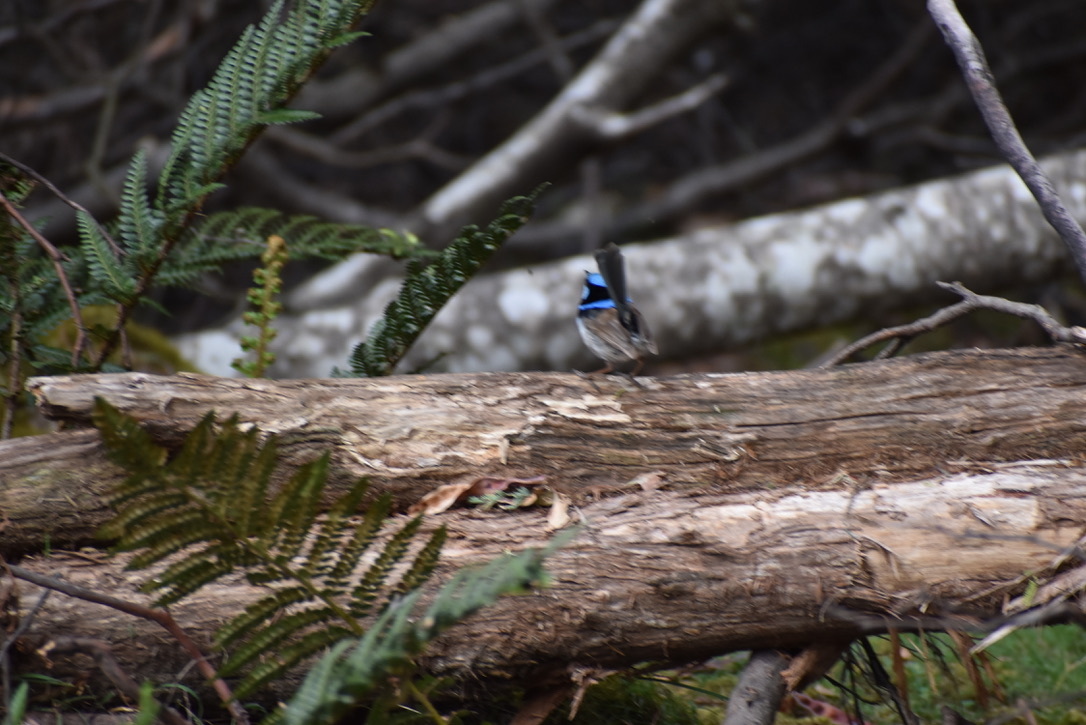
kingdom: Animalia
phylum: Chordata
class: Aves
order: Passeriformes
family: Maluridae
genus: Malurus
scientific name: Malurus cyaneus
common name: Superb fairywren
